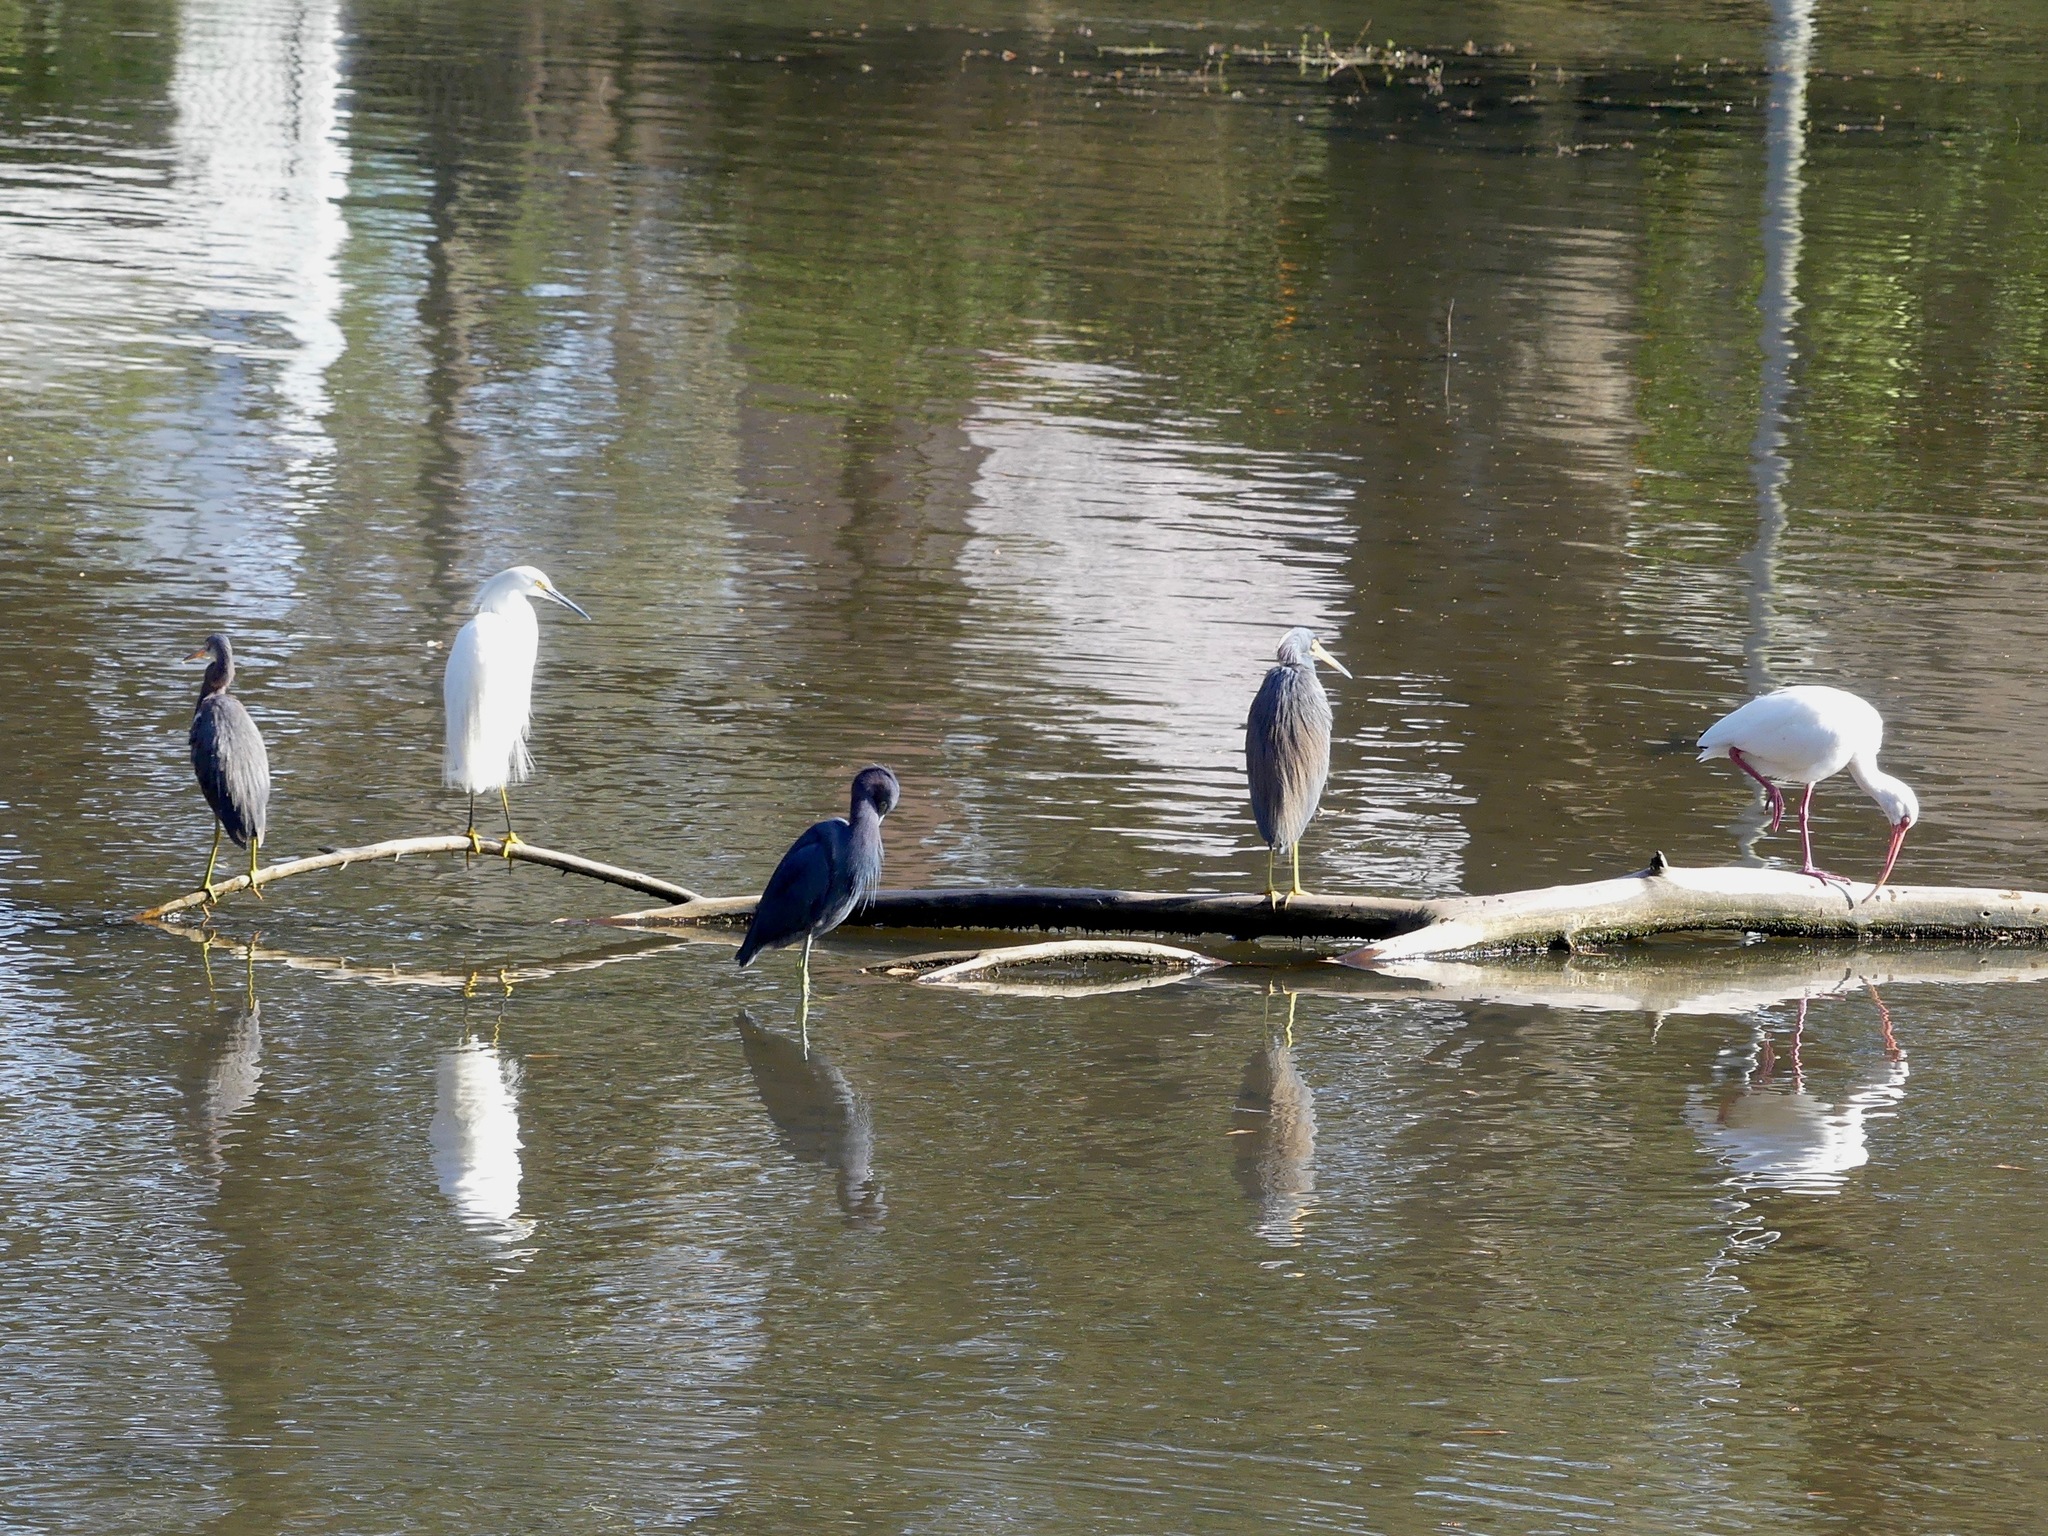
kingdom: Animalia
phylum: Chordata
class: Aves
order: Pelecaniformes
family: Threskiornithidae
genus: Eudocimus
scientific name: Eudocimus albus
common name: White ibis
